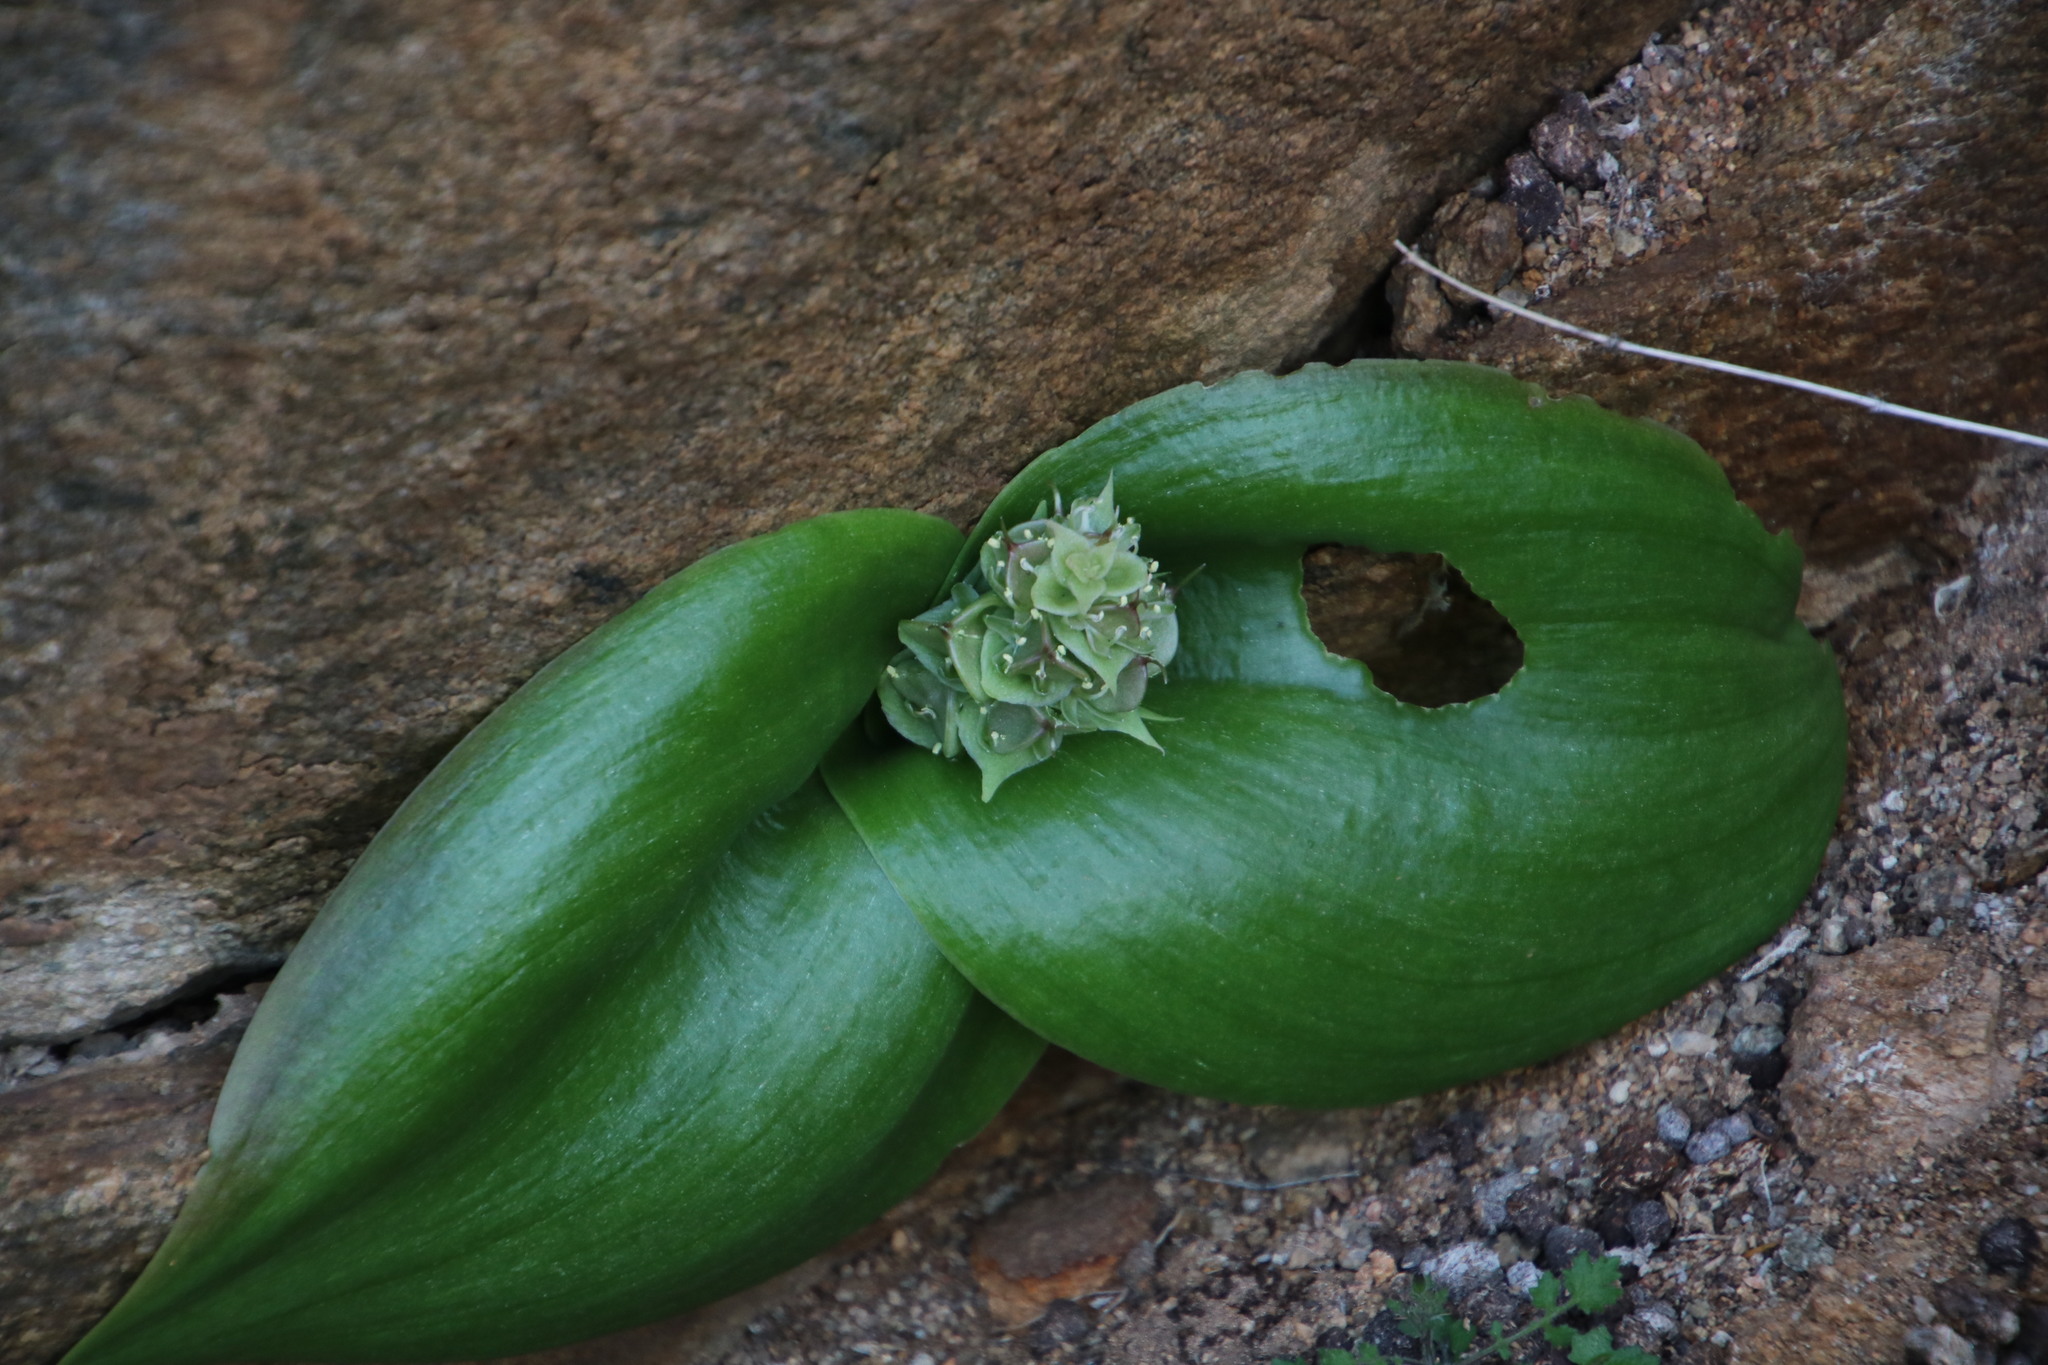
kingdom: Plantae
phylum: Tracheophyta
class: Liliopsida
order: Asparagales
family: Asparagaceae
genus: Massonia
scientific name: Massonia bifolia
